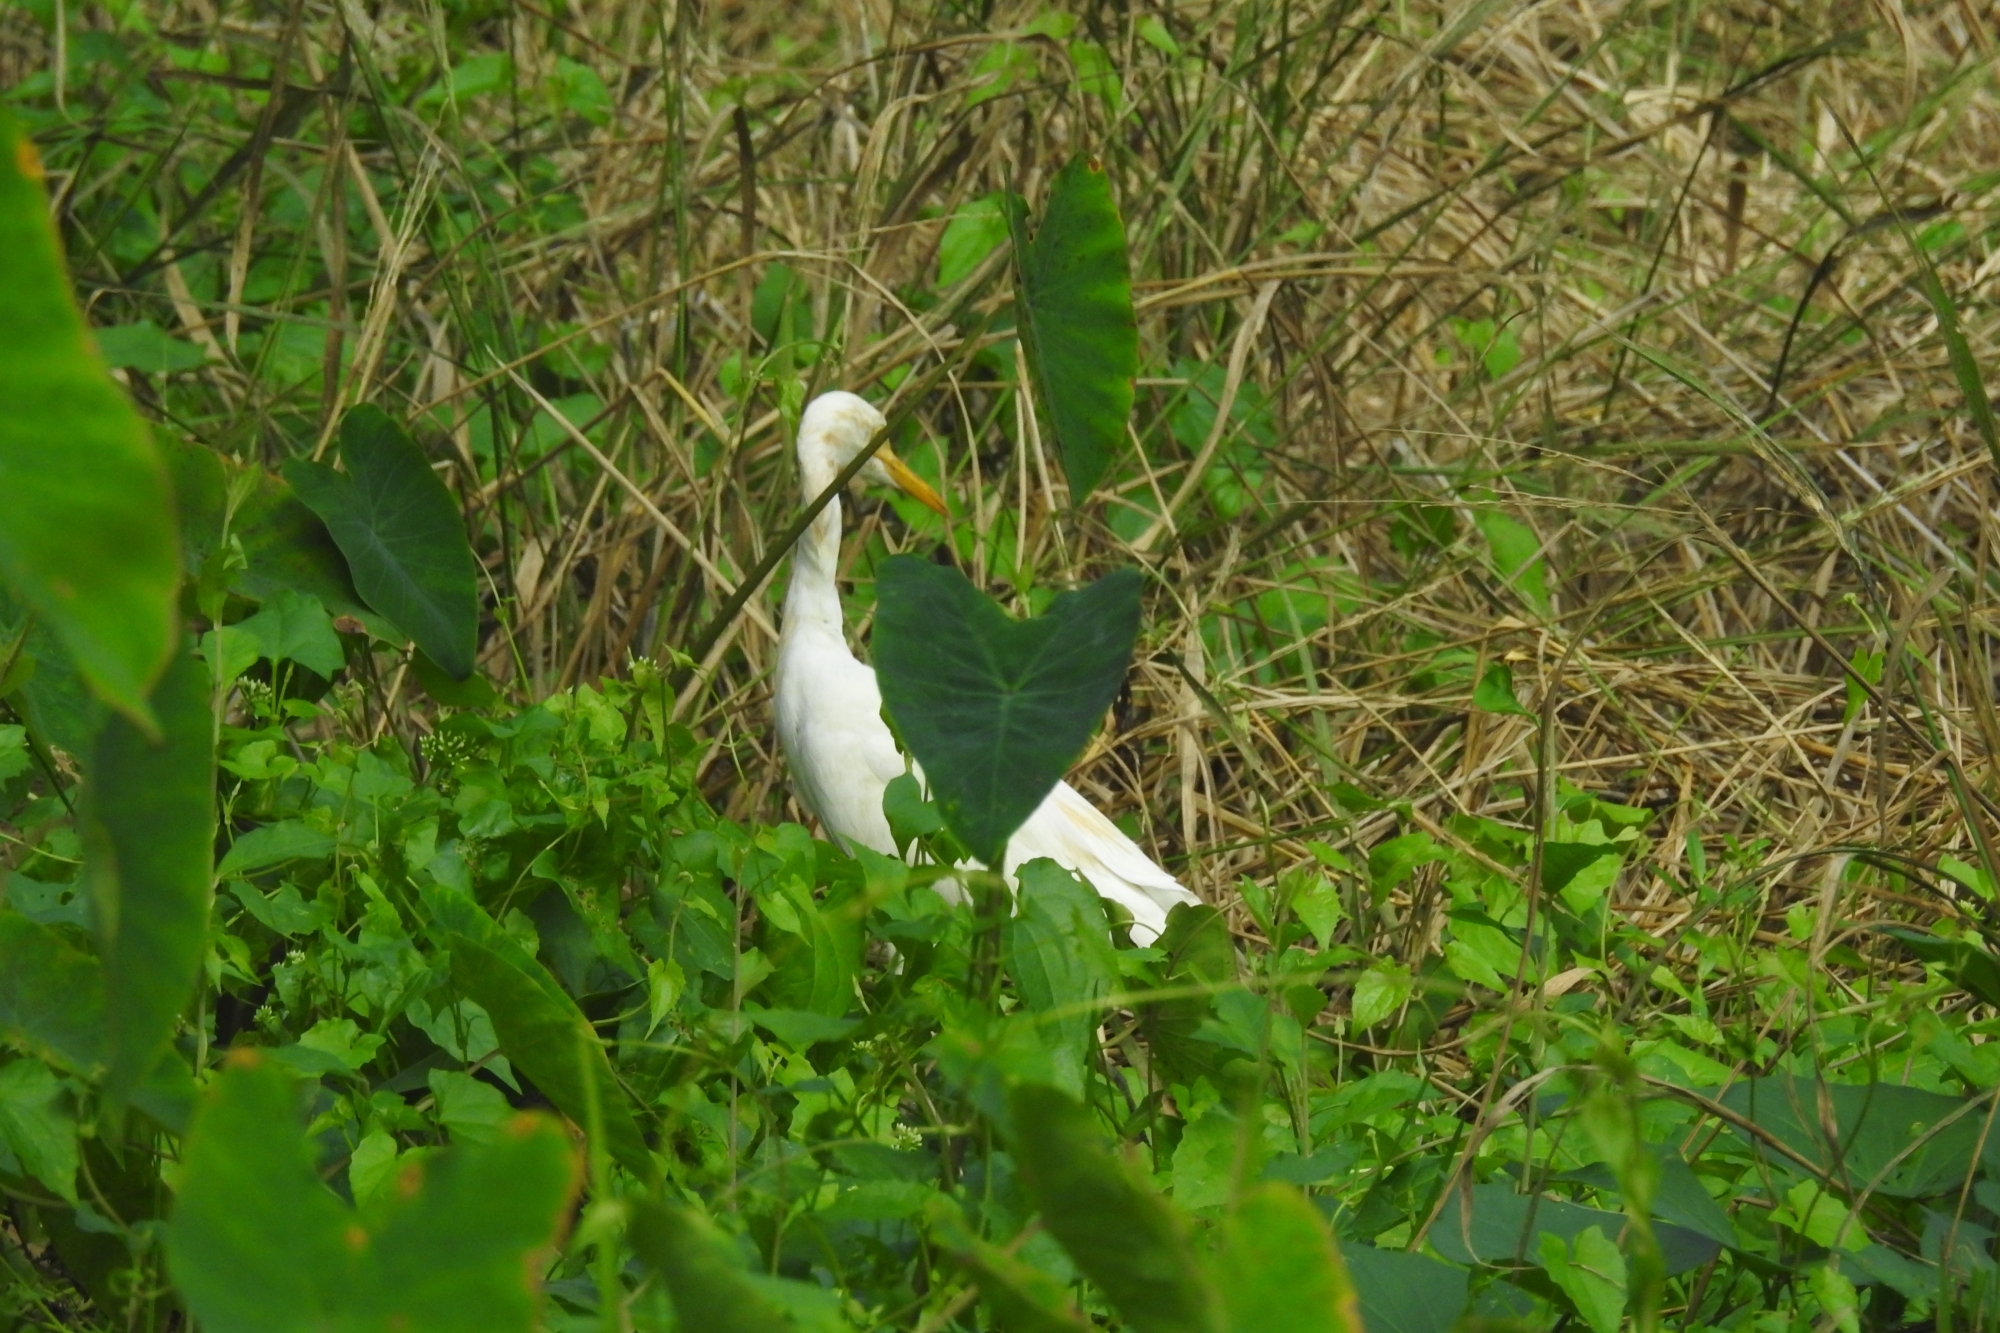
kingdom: Animalia
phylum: Chordata
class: Aves
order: Pelecaniformes
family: Ardeidae
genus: Bubulcus
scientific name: Bubulcus coromandus
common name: Eastern cattle egret
